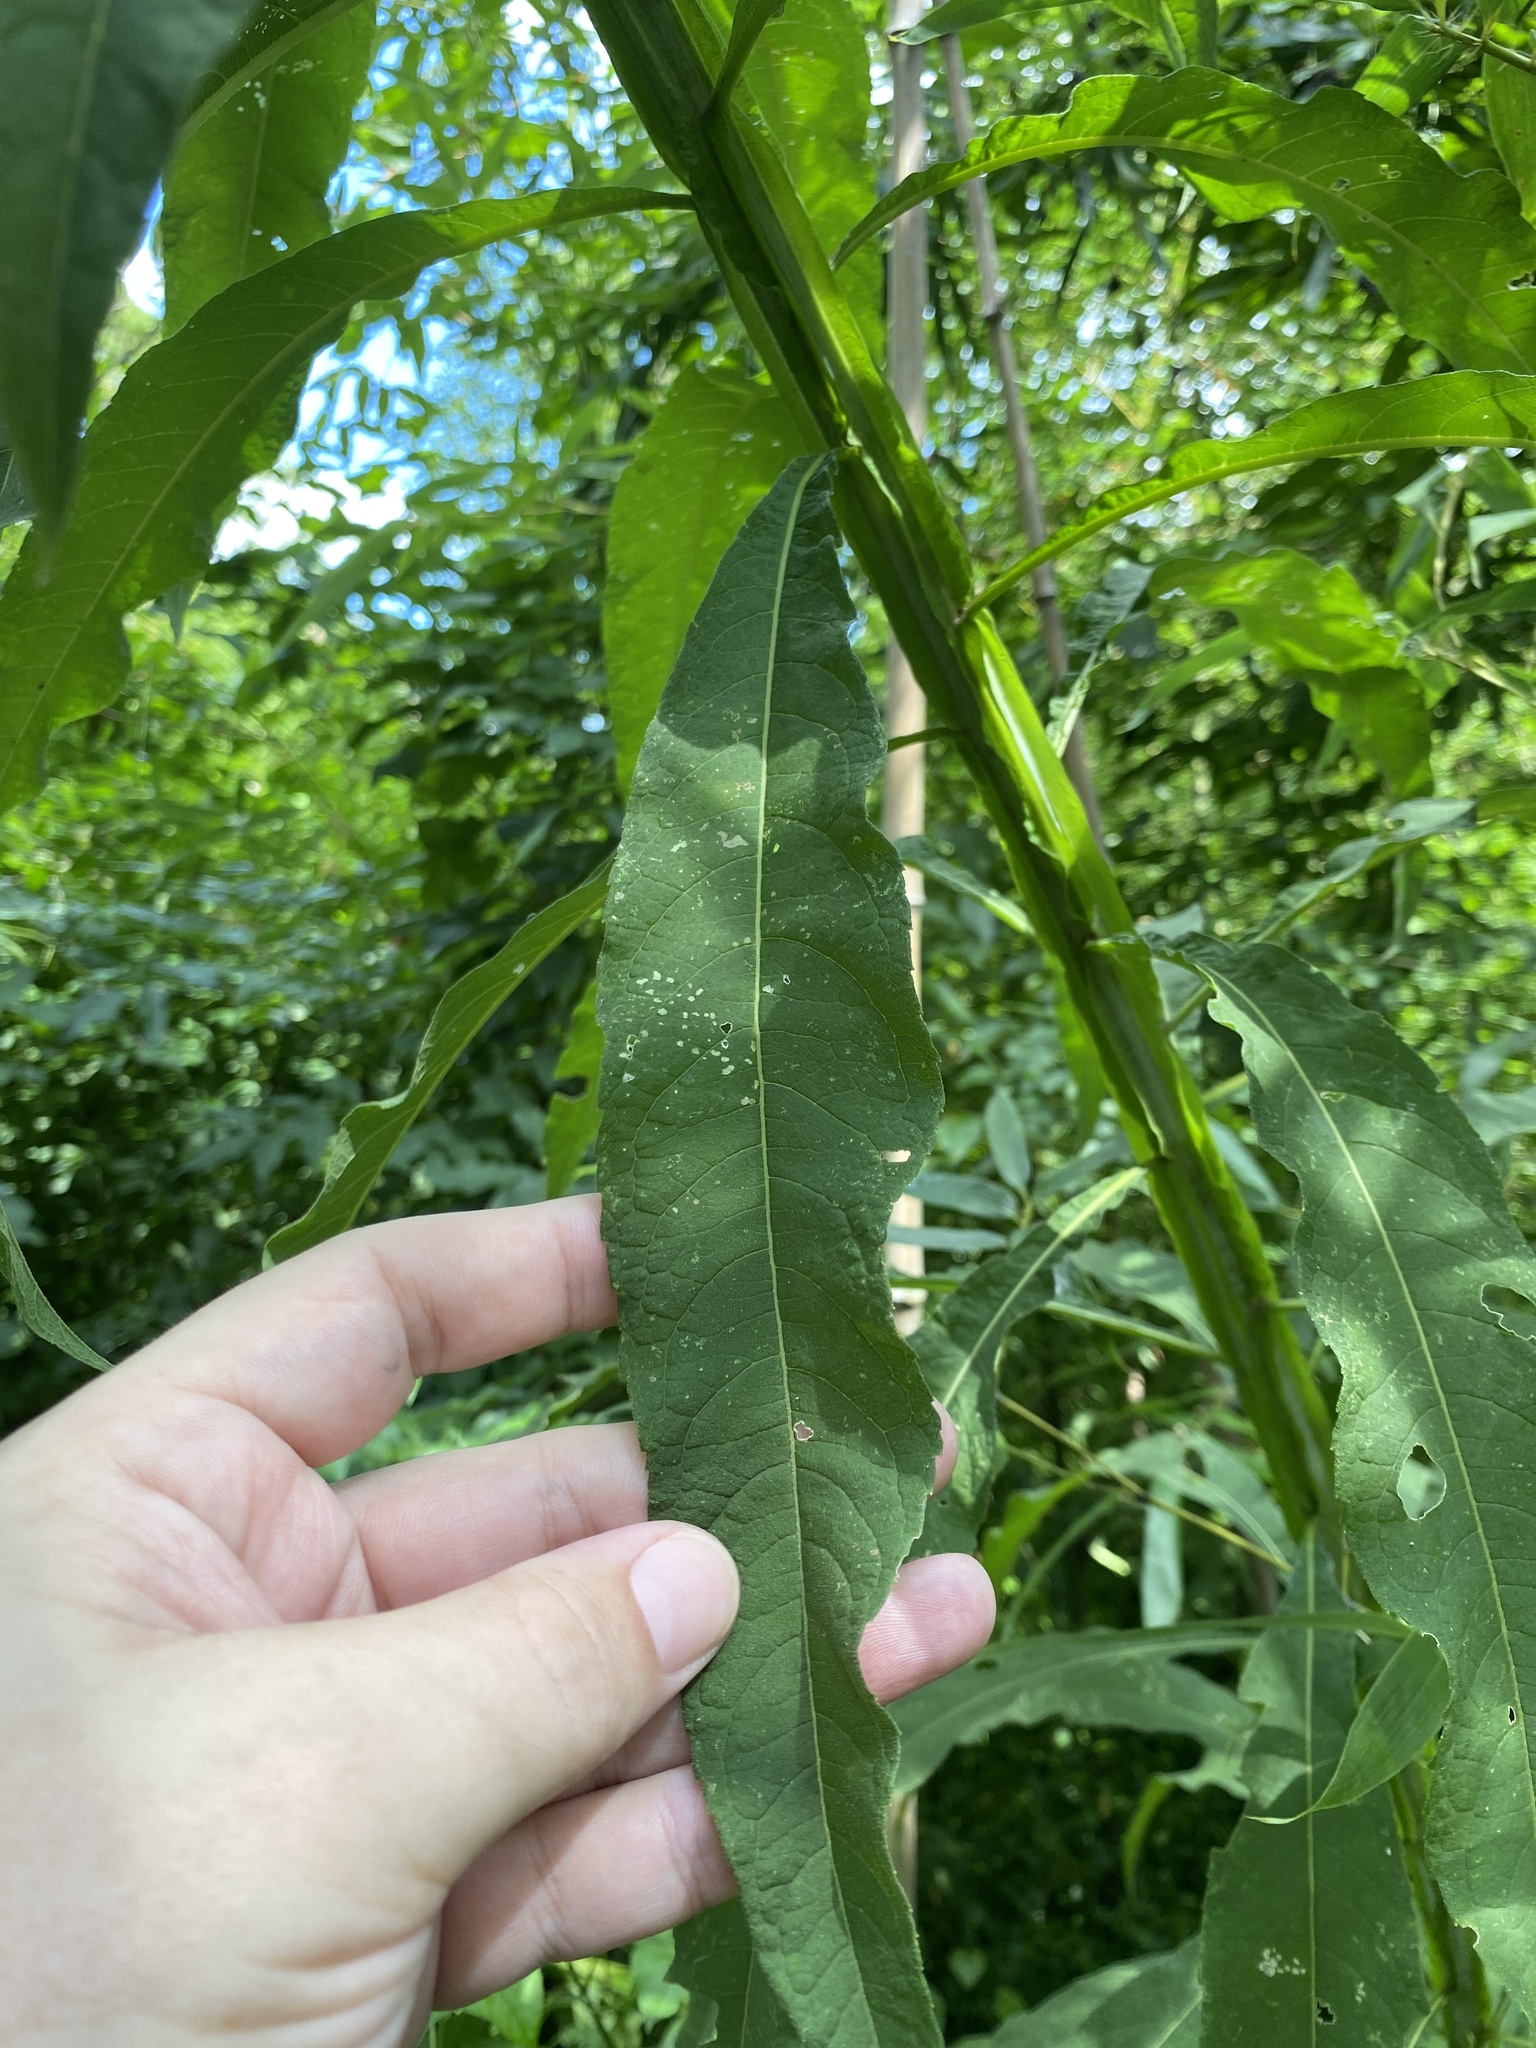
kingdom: Plantae
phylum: Tracheophyta
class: Magnoliopsida
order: Asterales
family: Asteraceae
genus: Verbesina
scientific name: Verbesina alternifolia
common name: Wingstem
